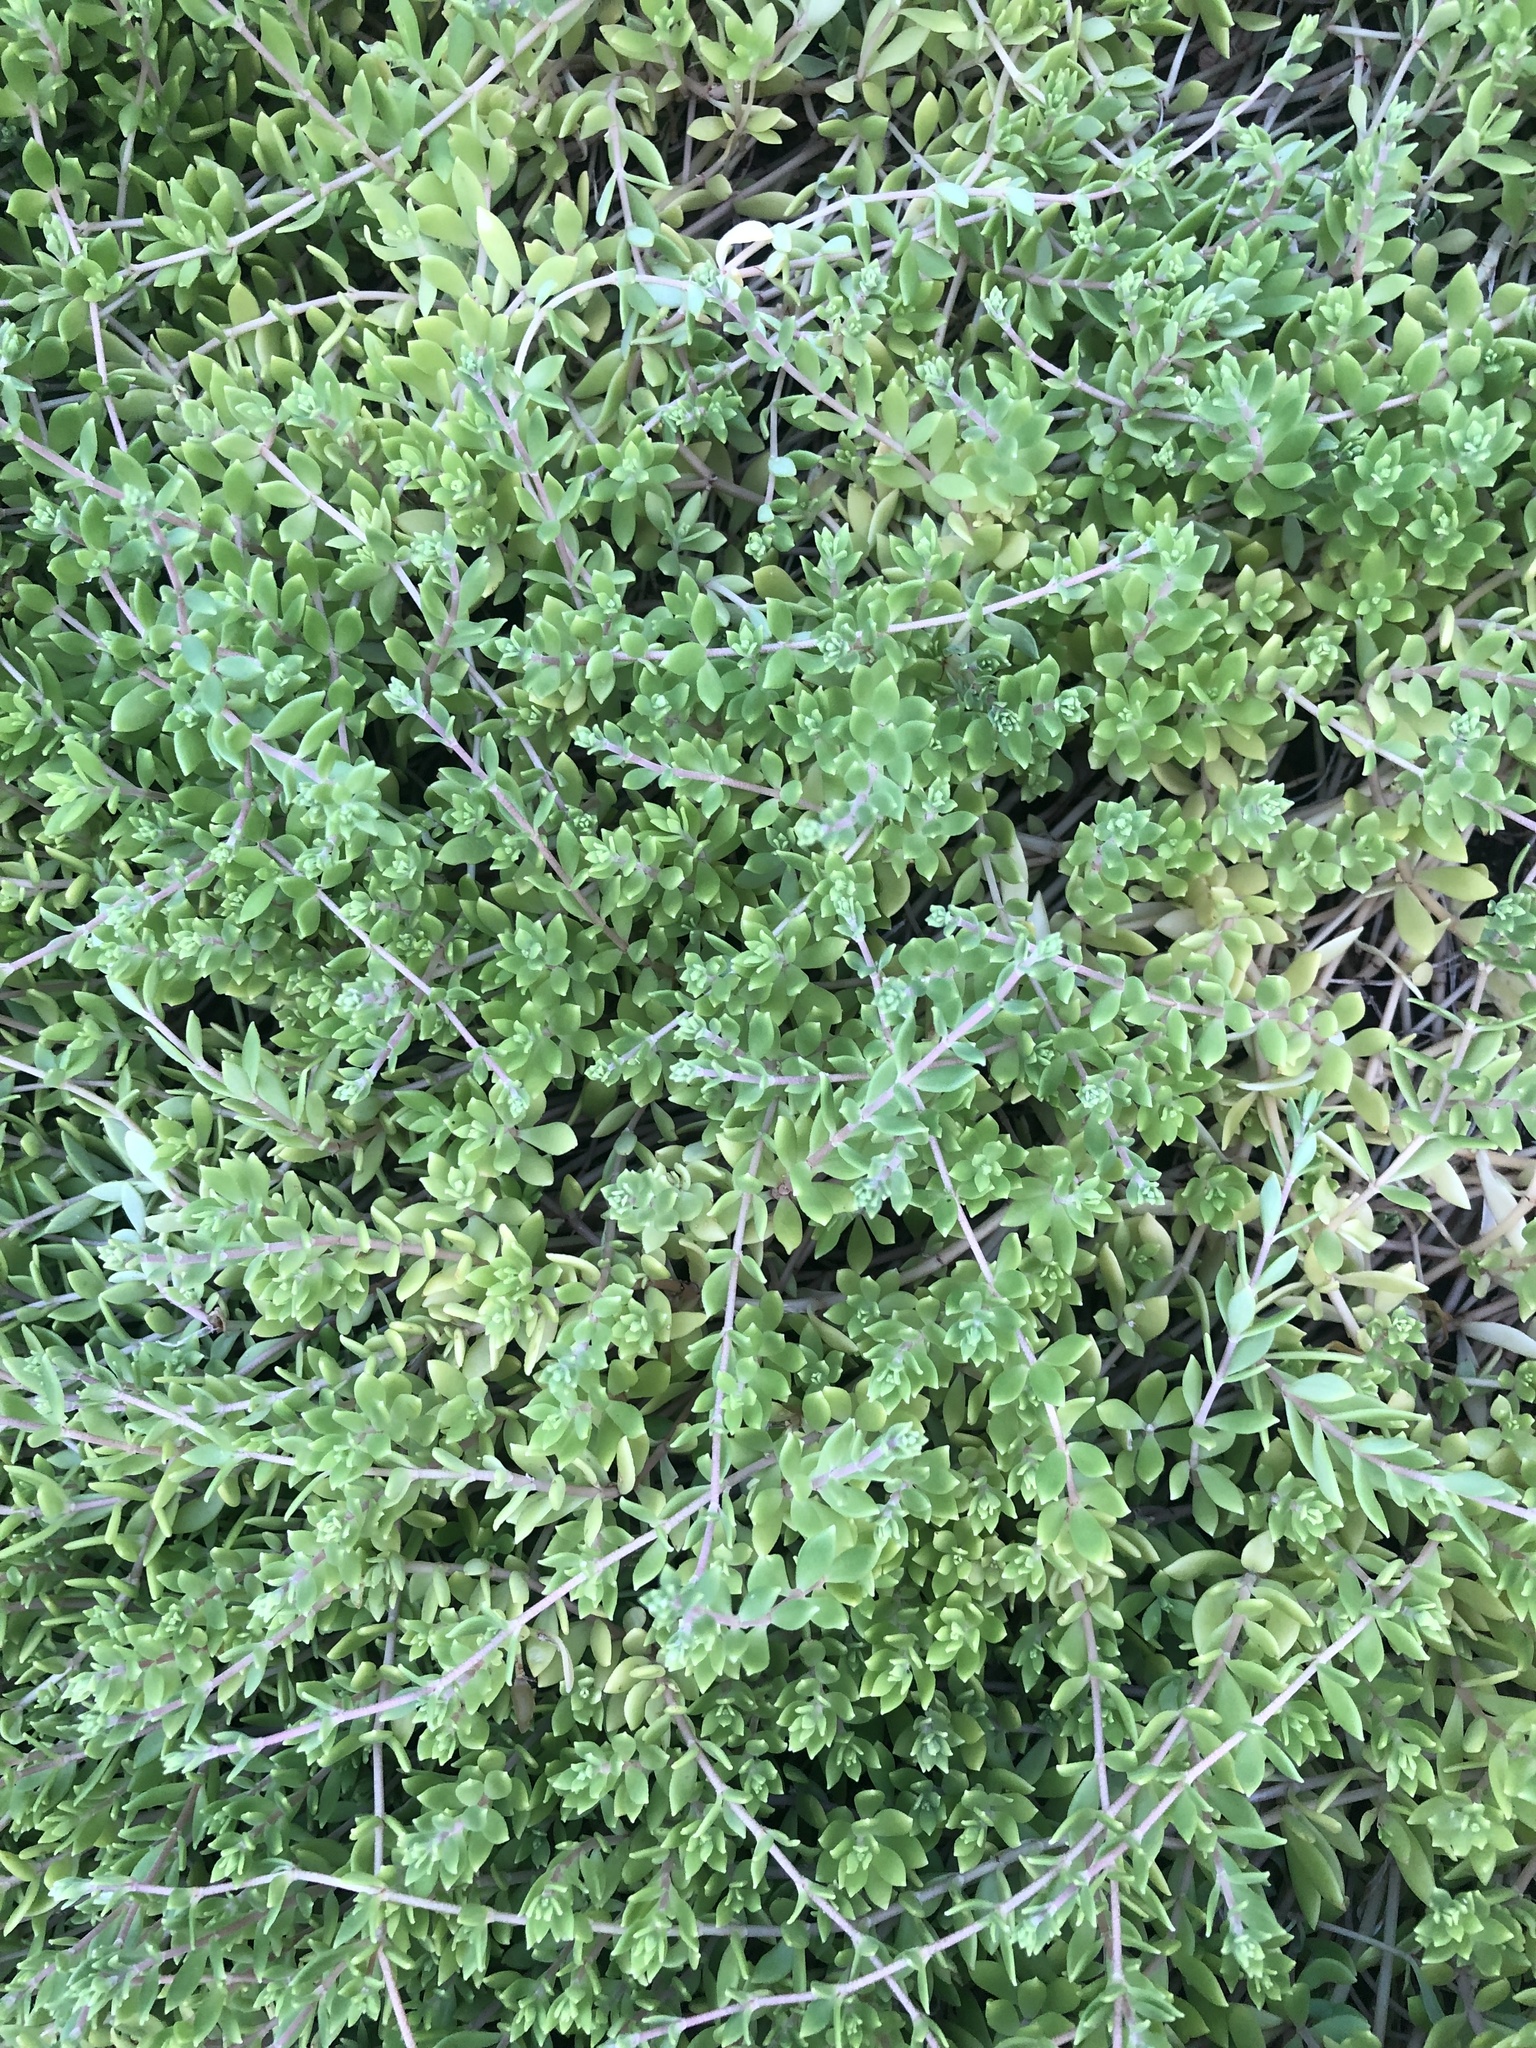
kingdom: Plantae
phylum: Tracheophyta
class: Magnoliopsida
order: Saxifragales
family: Crassulaceae
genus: Sedum
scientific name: Sedum sarmentosum
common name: Stringy stonecrop
